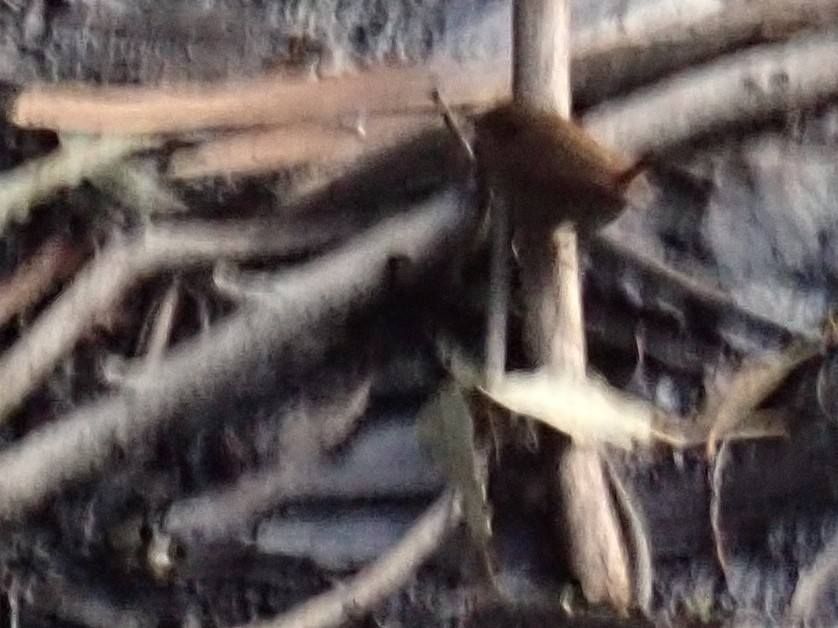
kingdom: Animalia
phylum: Chordata
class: Aves
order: Passeriformes
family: Troglodytidae
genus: Troglodytes
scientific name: Troglodytes pacificus
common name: Pacific wren
